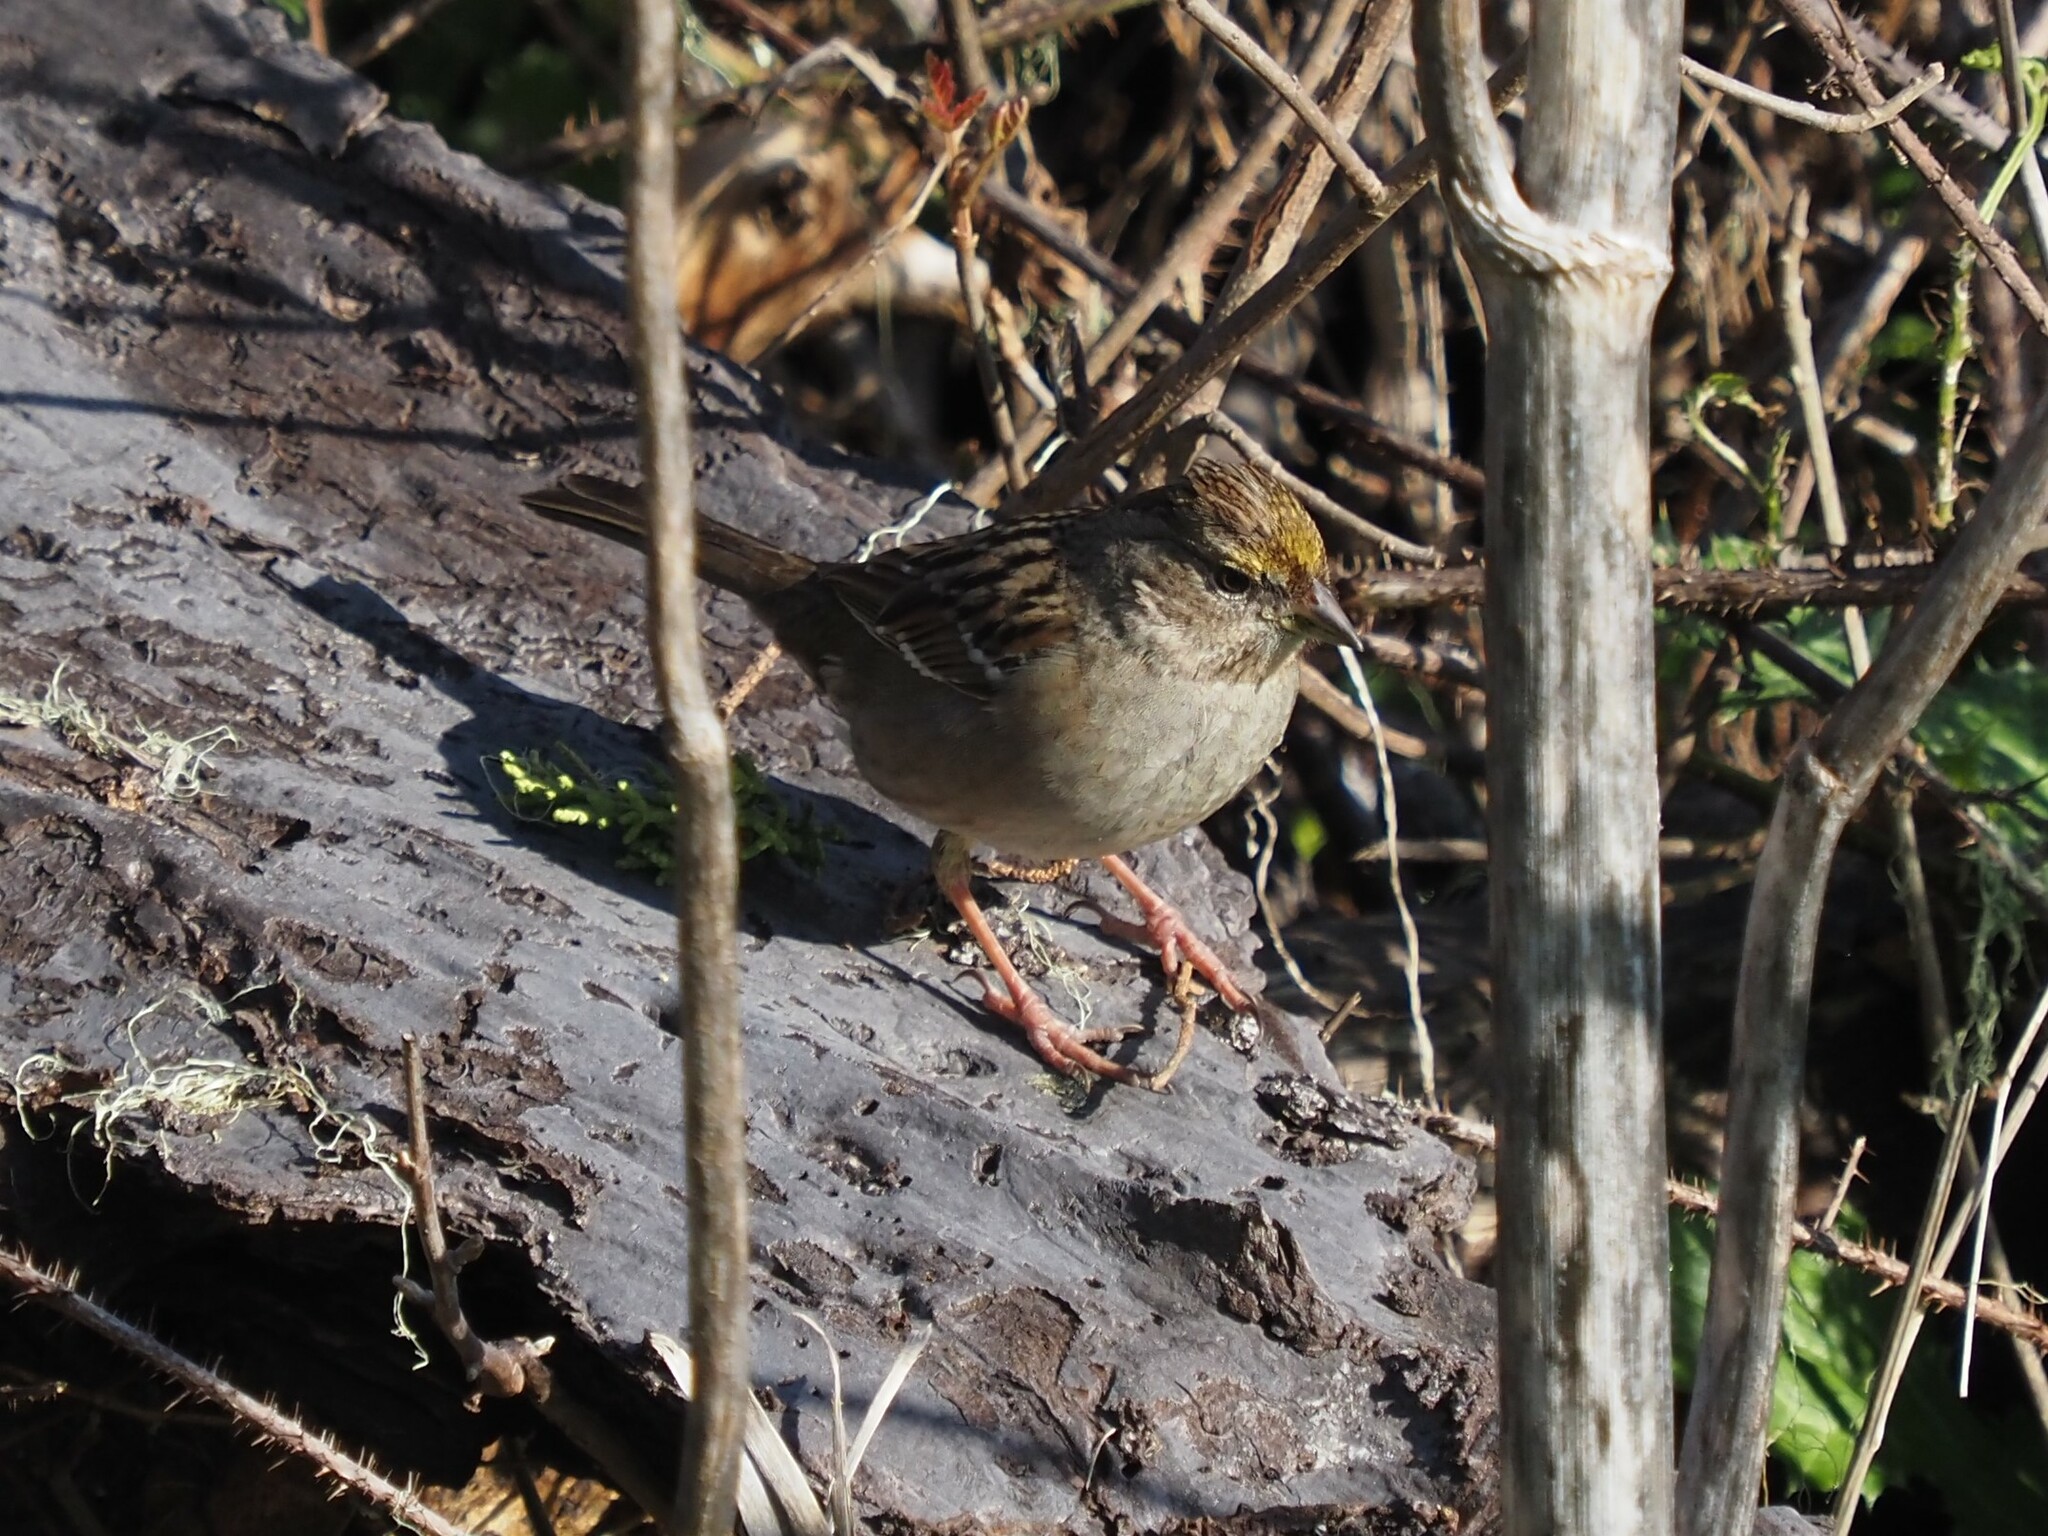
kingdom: Animalia
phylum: Chordata
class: Aves
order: Passeriformes
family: Passerellidae
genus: Zonotrichia
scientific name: Zonotrichia atricapilla
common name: Golden-crowned sparrow
